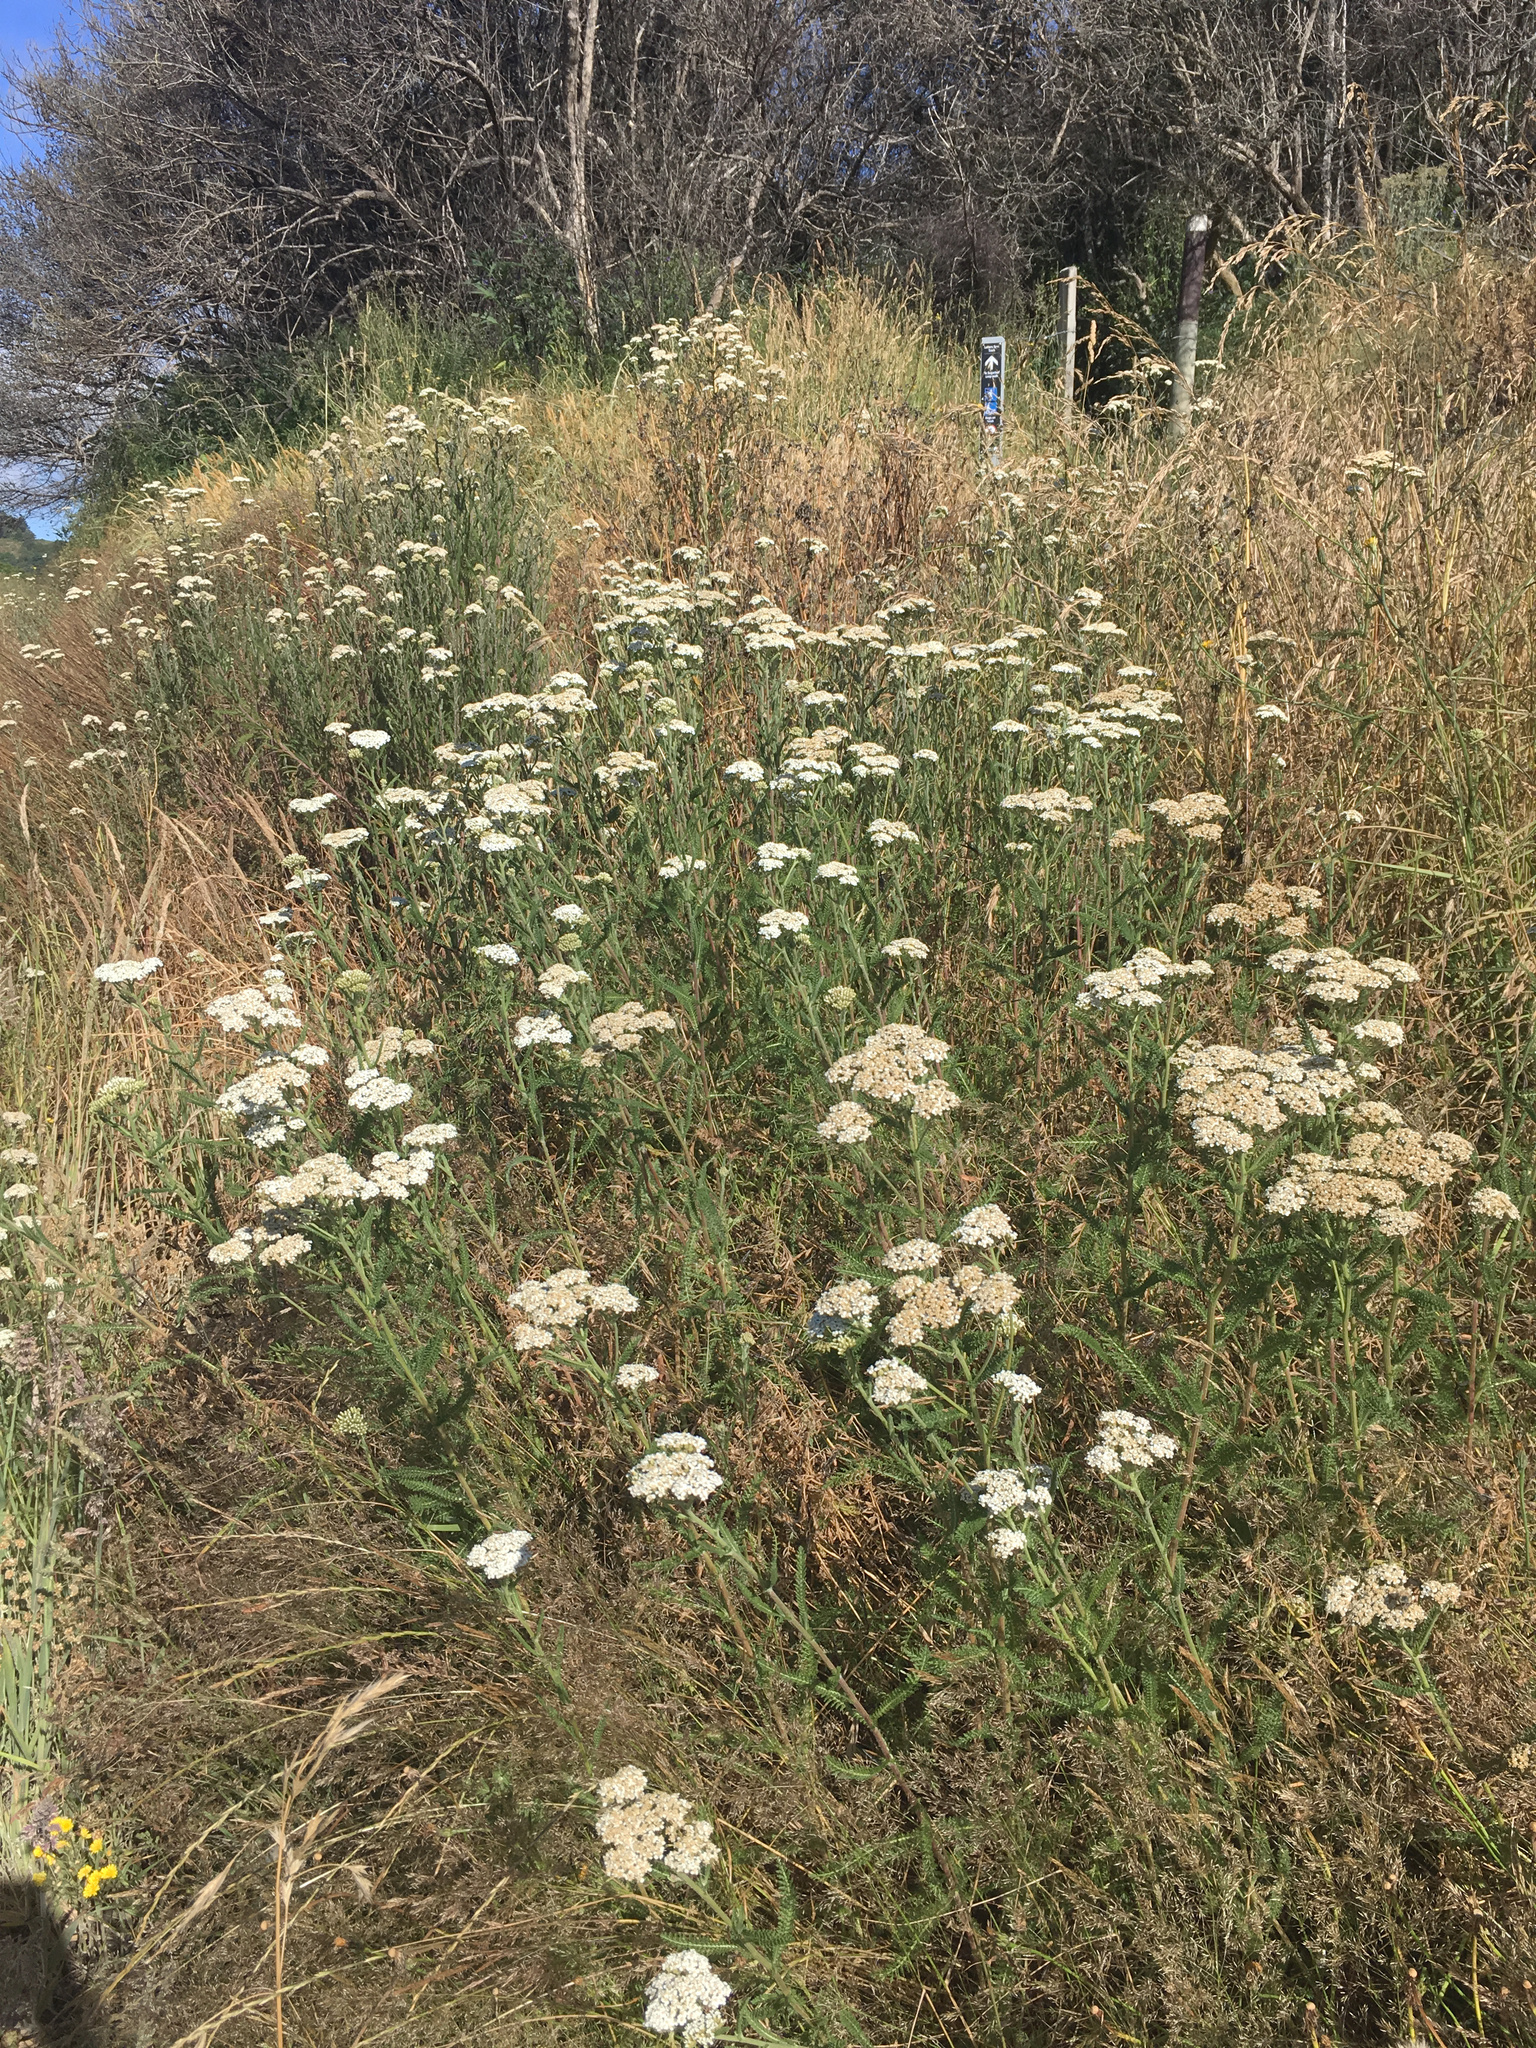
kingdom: Plantae
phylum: Tracheophyta
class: Magnoliopsida
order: Asterales
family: Asteraceae
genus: Achillea
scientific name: Achillea millefolium
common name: Yarrow
